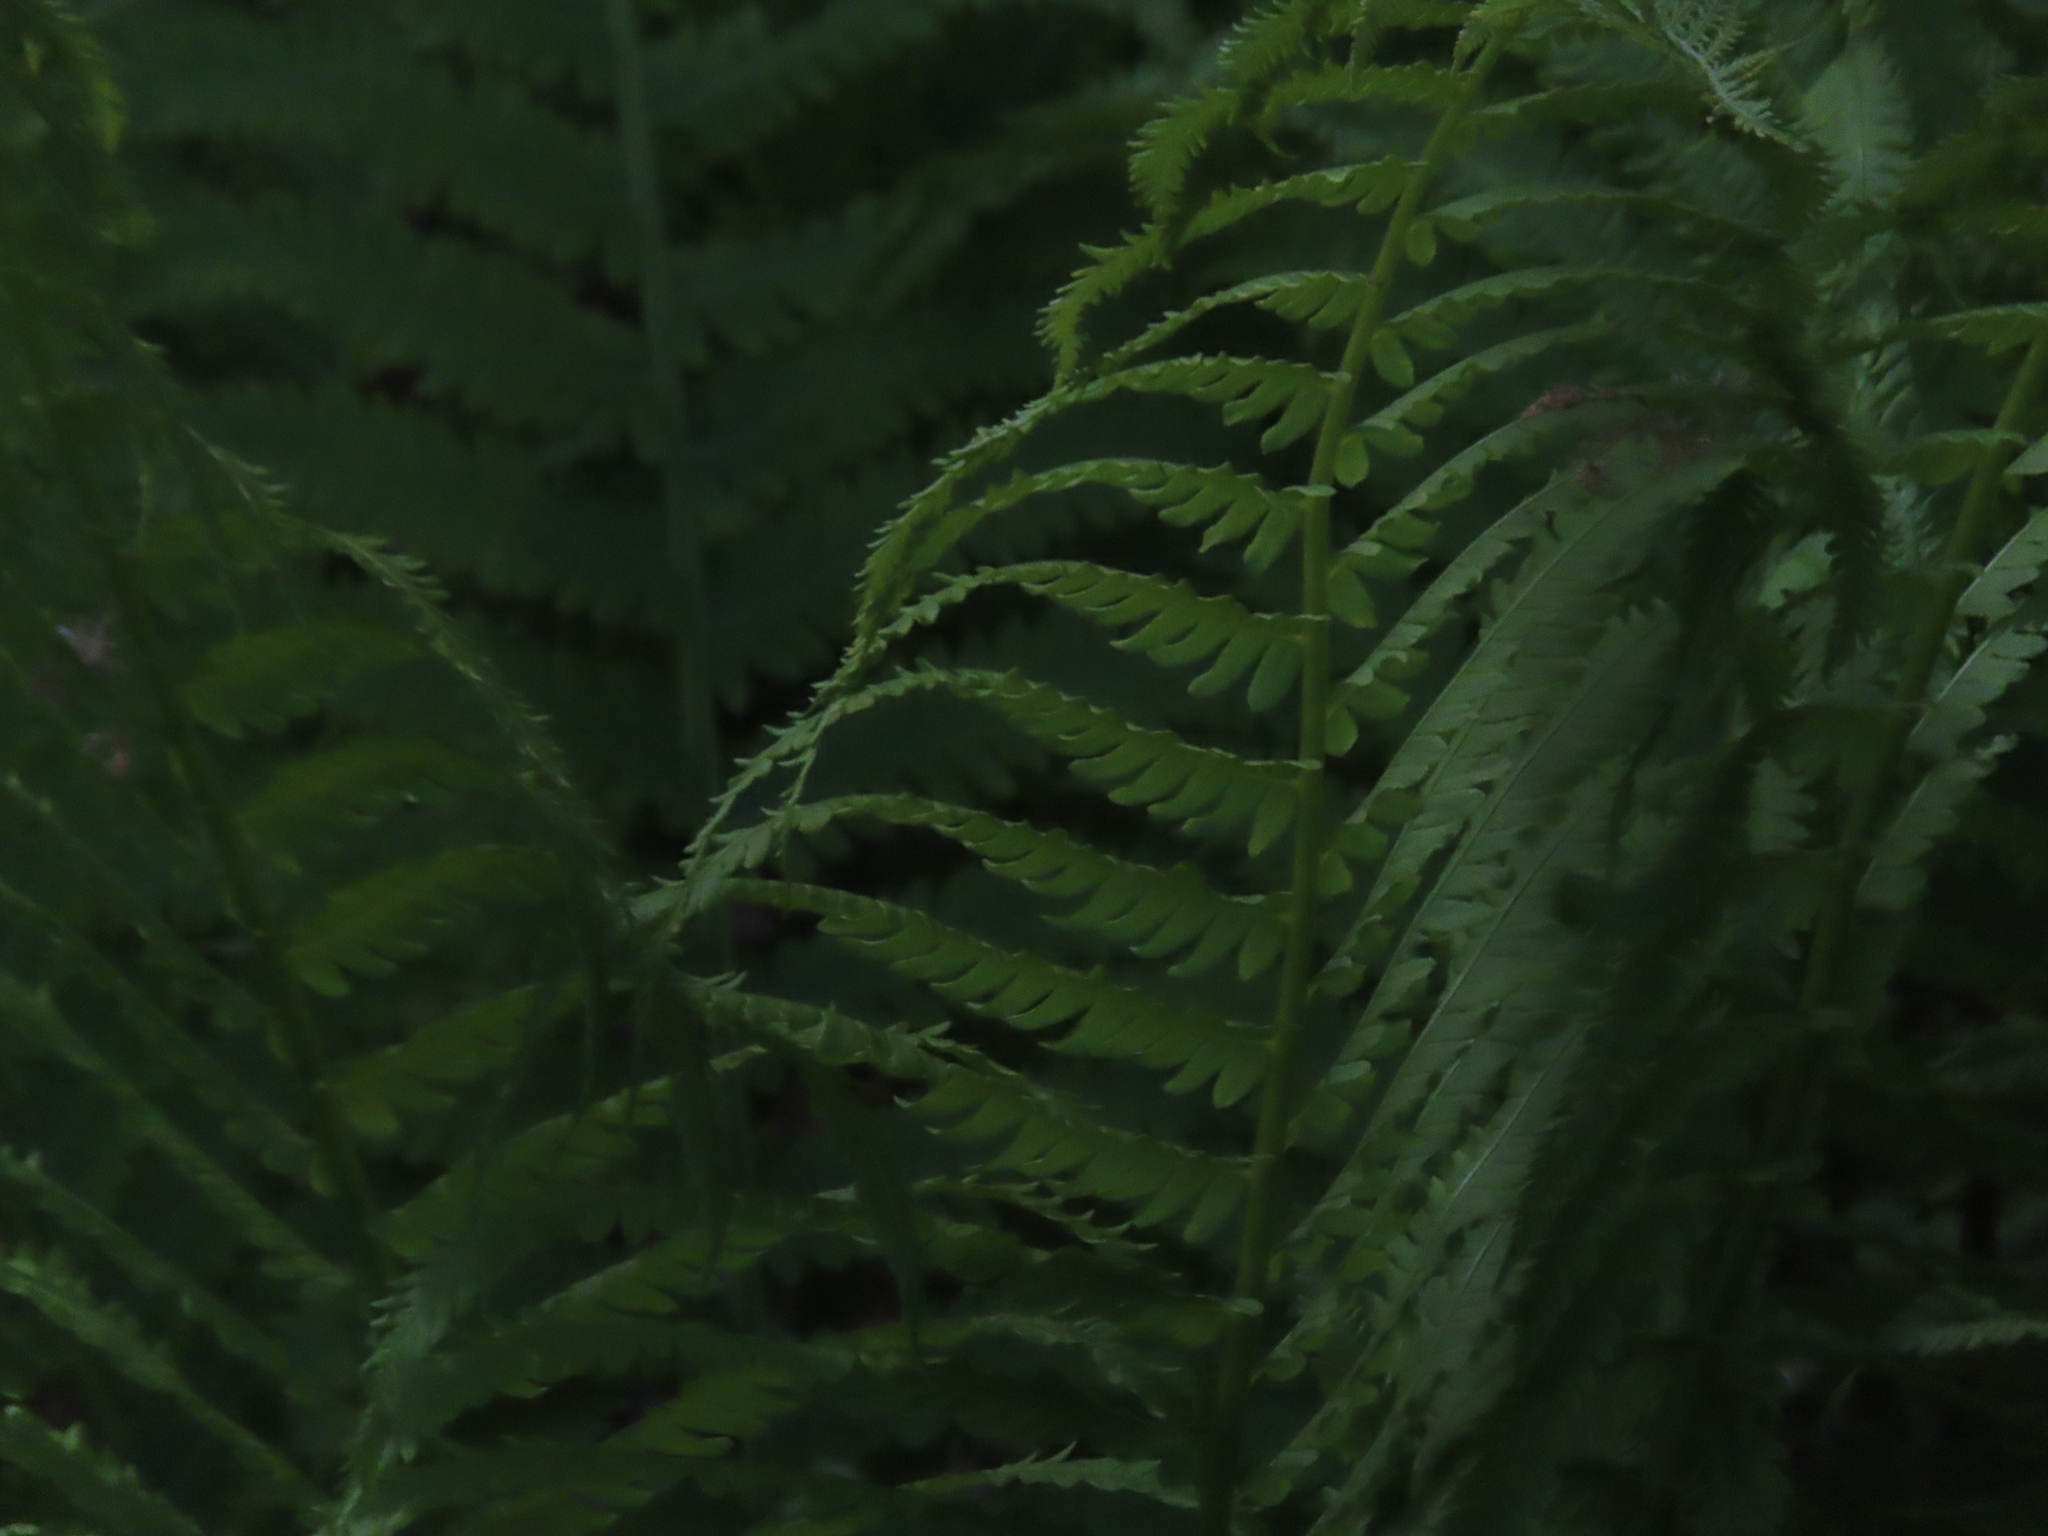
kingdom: Plantae
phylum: Tracheophyta
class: Polypodiopsida
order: Polypodiales
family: Onocleaceae
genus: Matteuccia
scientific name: Matteuccia struthiopteris
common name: Ostrich fern
